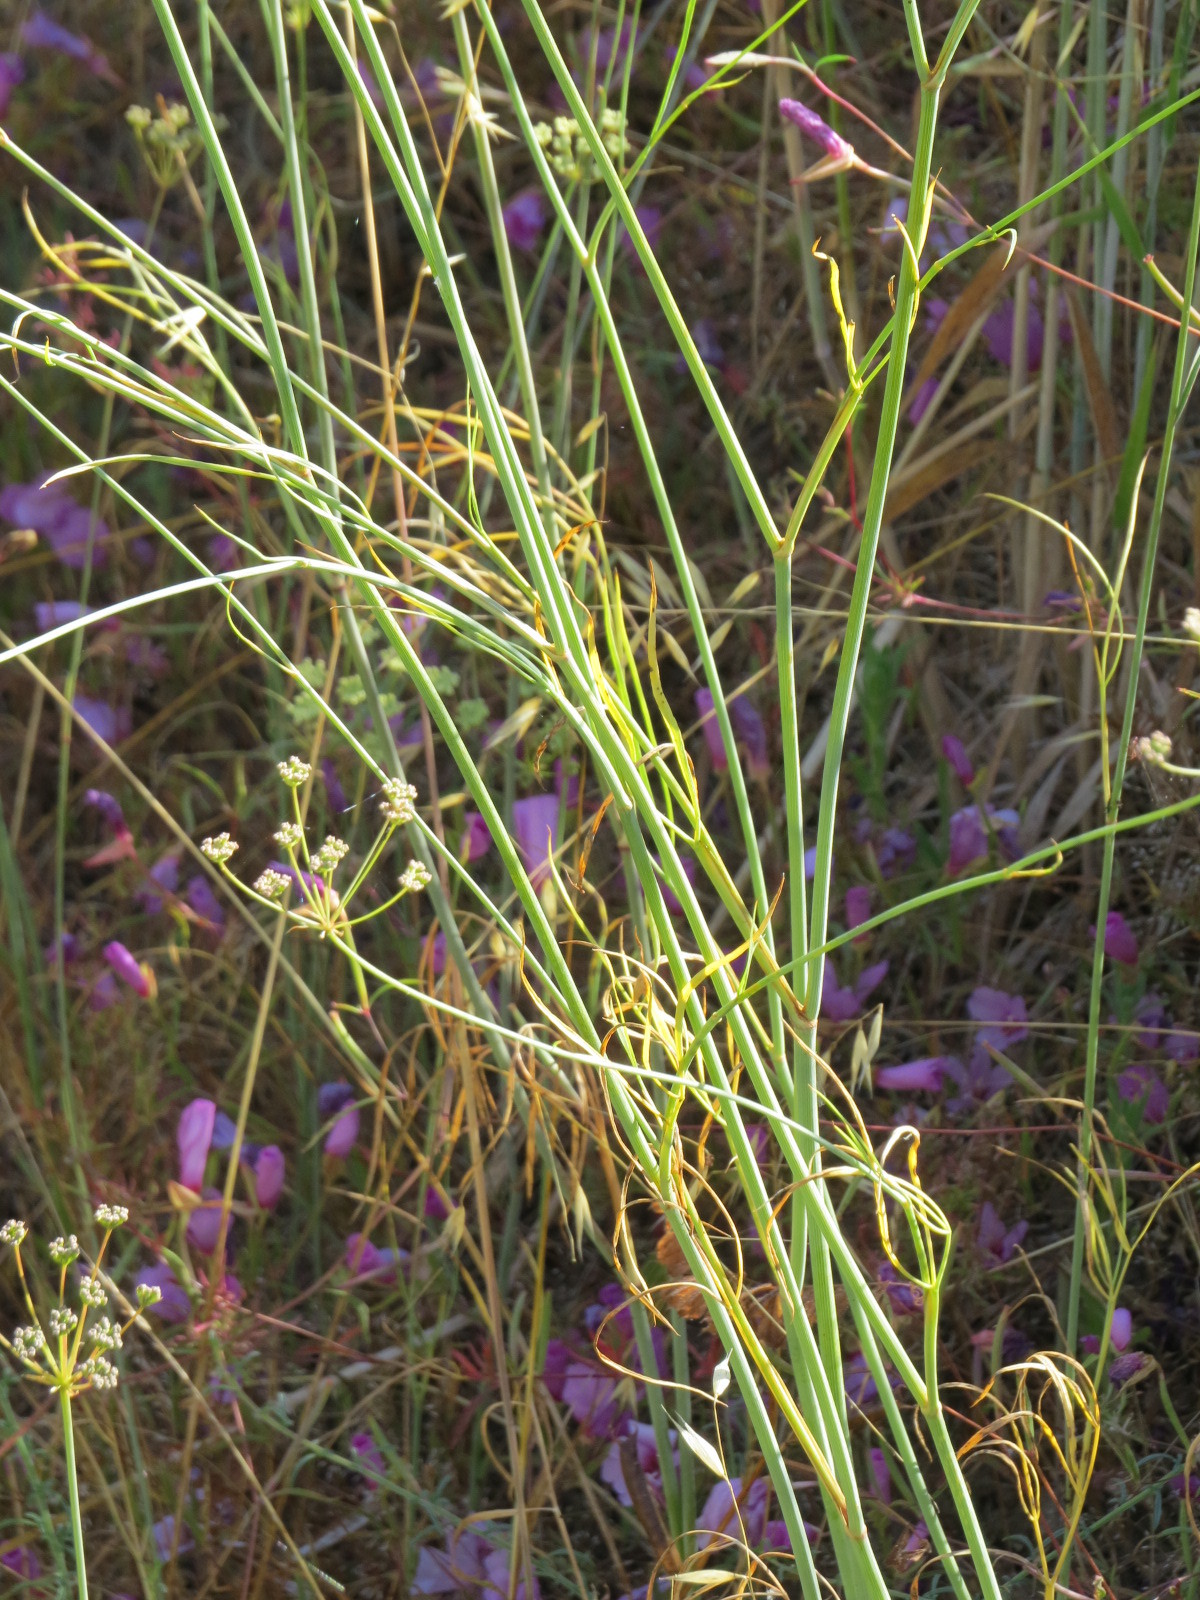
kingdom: Plantae
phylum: Tracheophyta
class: Magnoliopsida
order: Apiales
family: Apiaceae
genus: Perideridia
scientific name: Perideridia kelloggii
